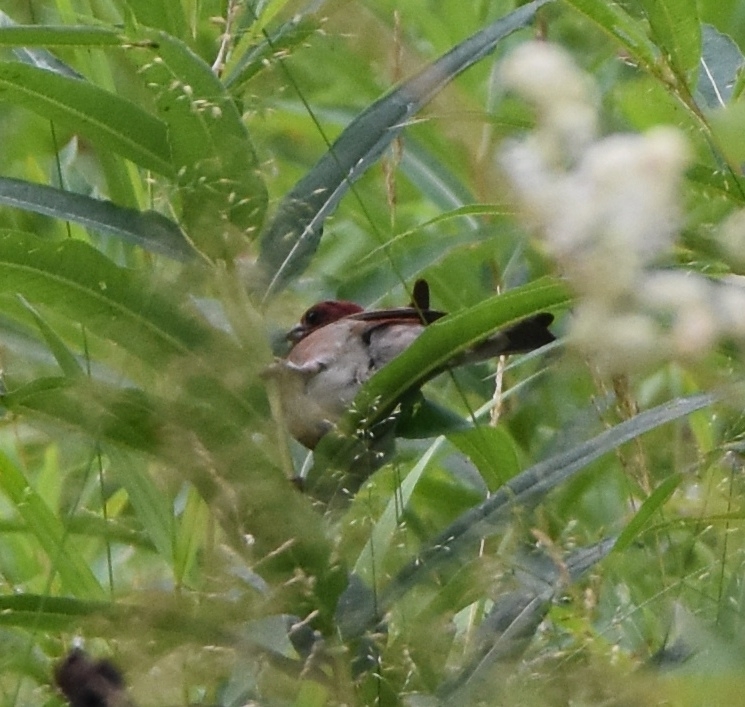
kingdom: Animalia
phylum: Chordata
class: Aves
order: Passeriformes
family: Fringillidae
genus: Loxia
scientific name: Loxia curvirostra
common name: Red crossbill
